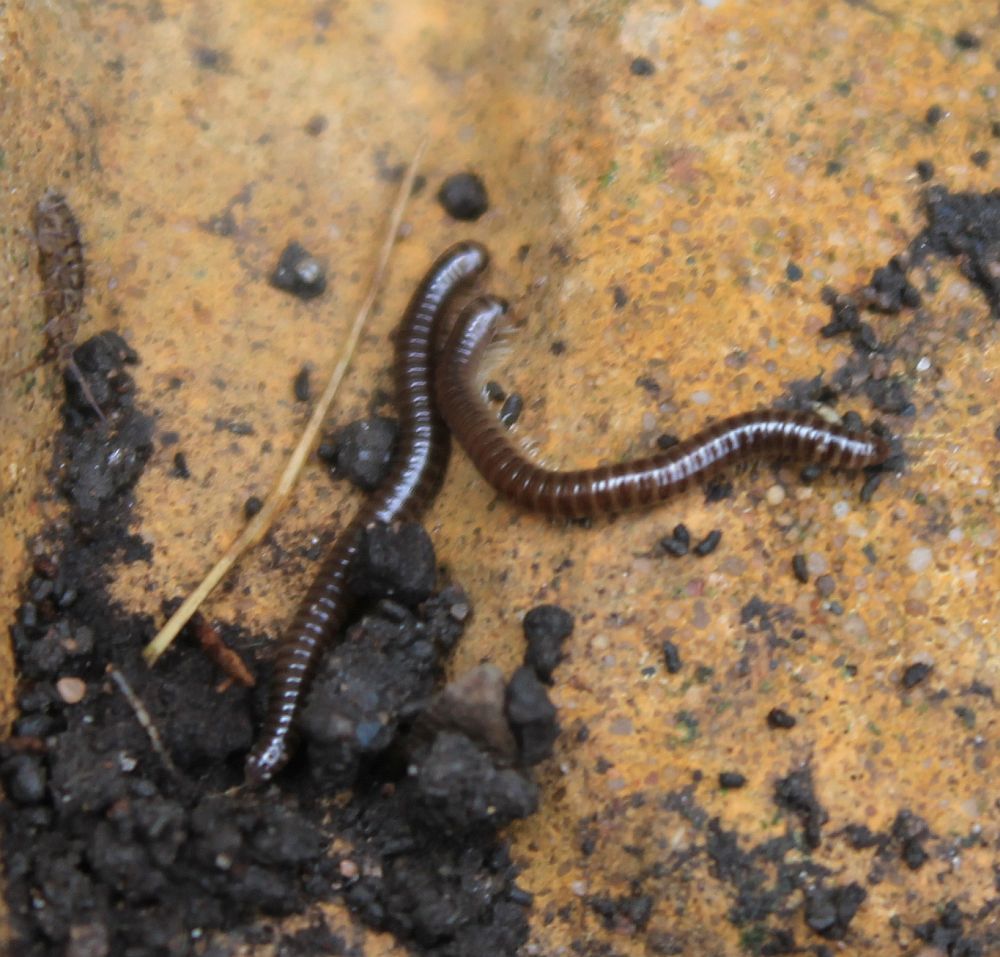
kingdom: Animalia
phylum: Arthropoda
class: Diplopoda
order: Julida
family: Julidae
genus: Cylindroiulus
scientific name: Cylindroiulus caeruleocinctus
